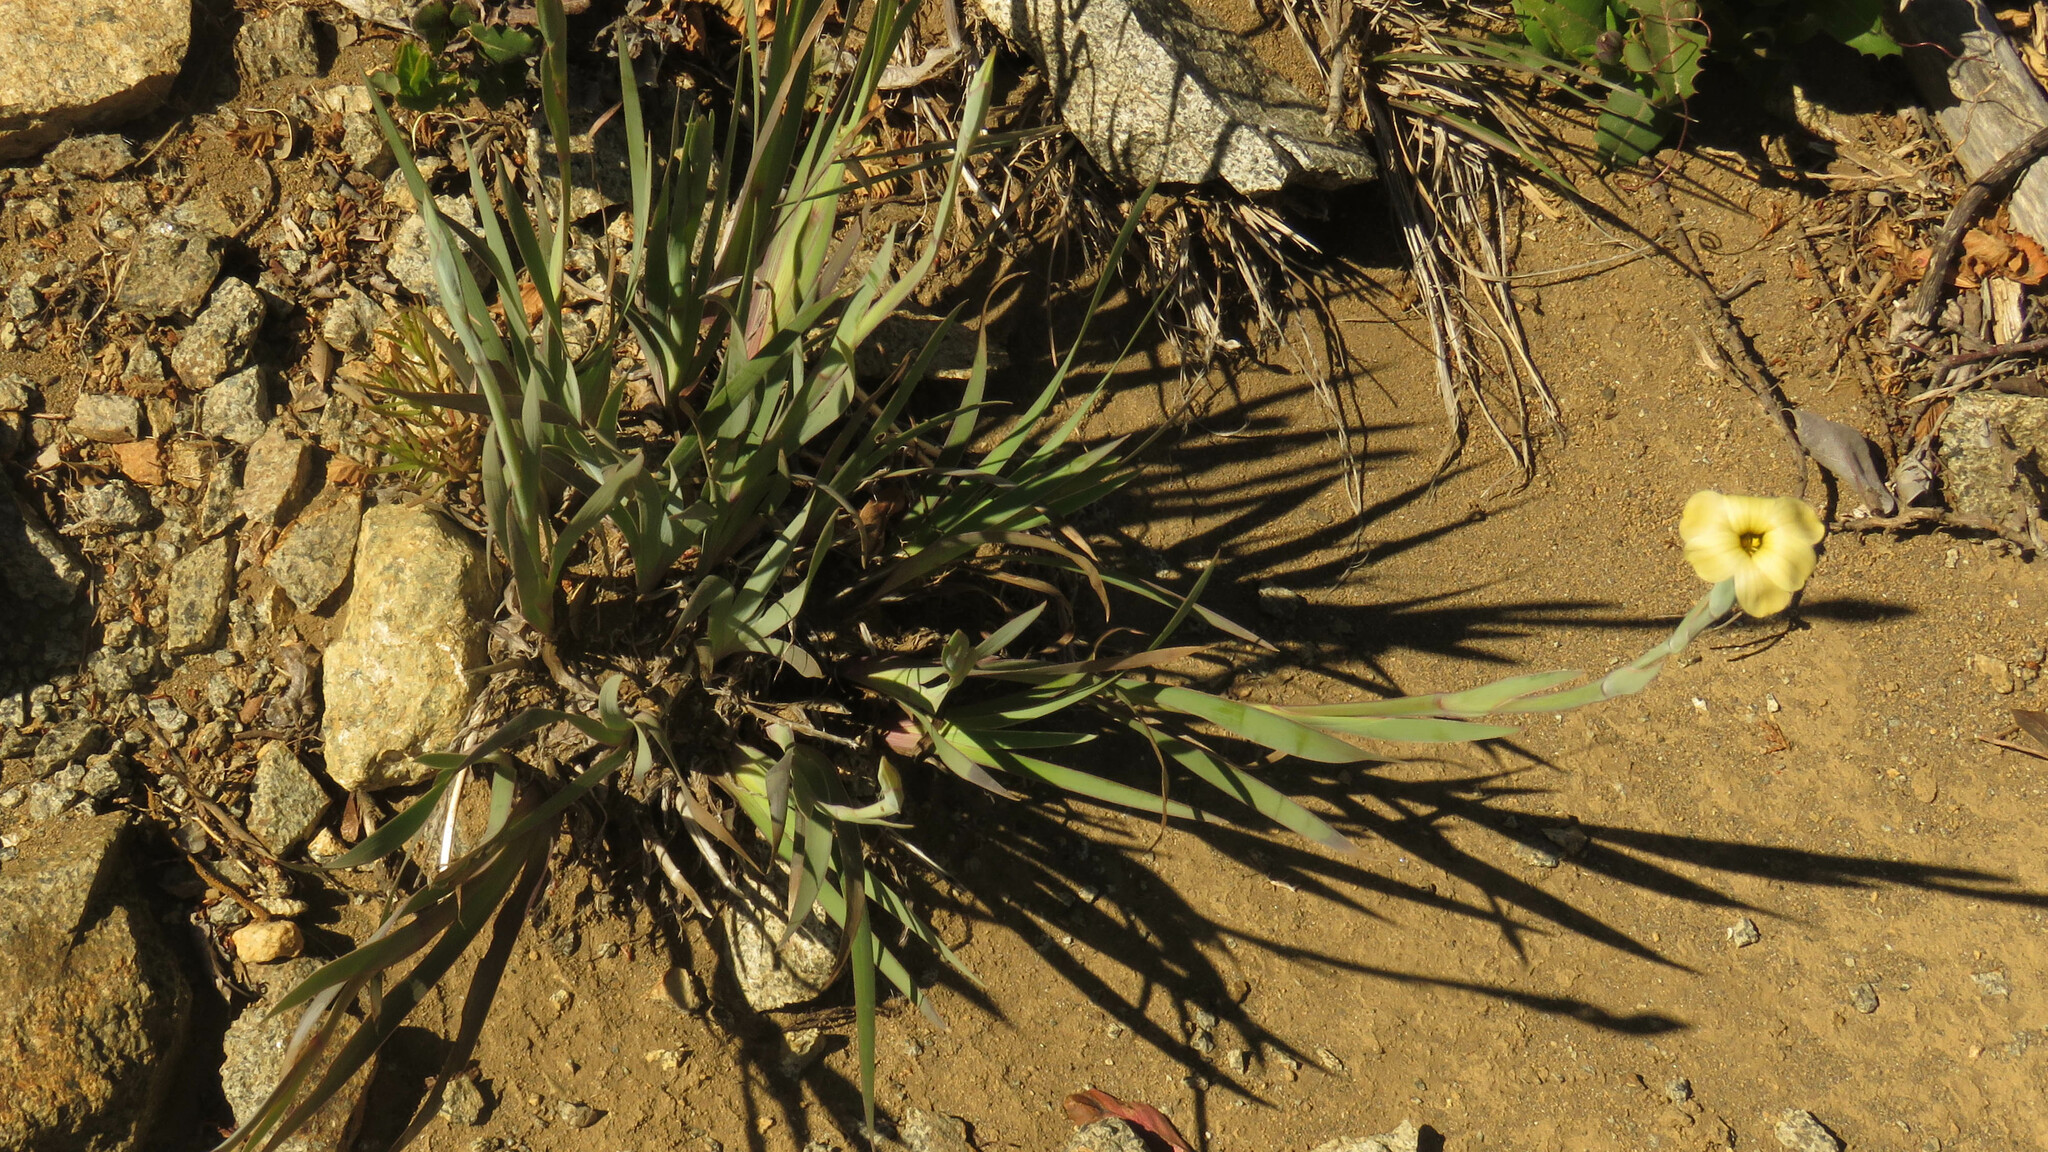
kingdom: Plantae
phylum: Tracheophyta
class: Liliopsida
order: Asparagales
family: Iridaceae
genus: Sisyrinchium
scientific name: Sisyrinchium arenarium
